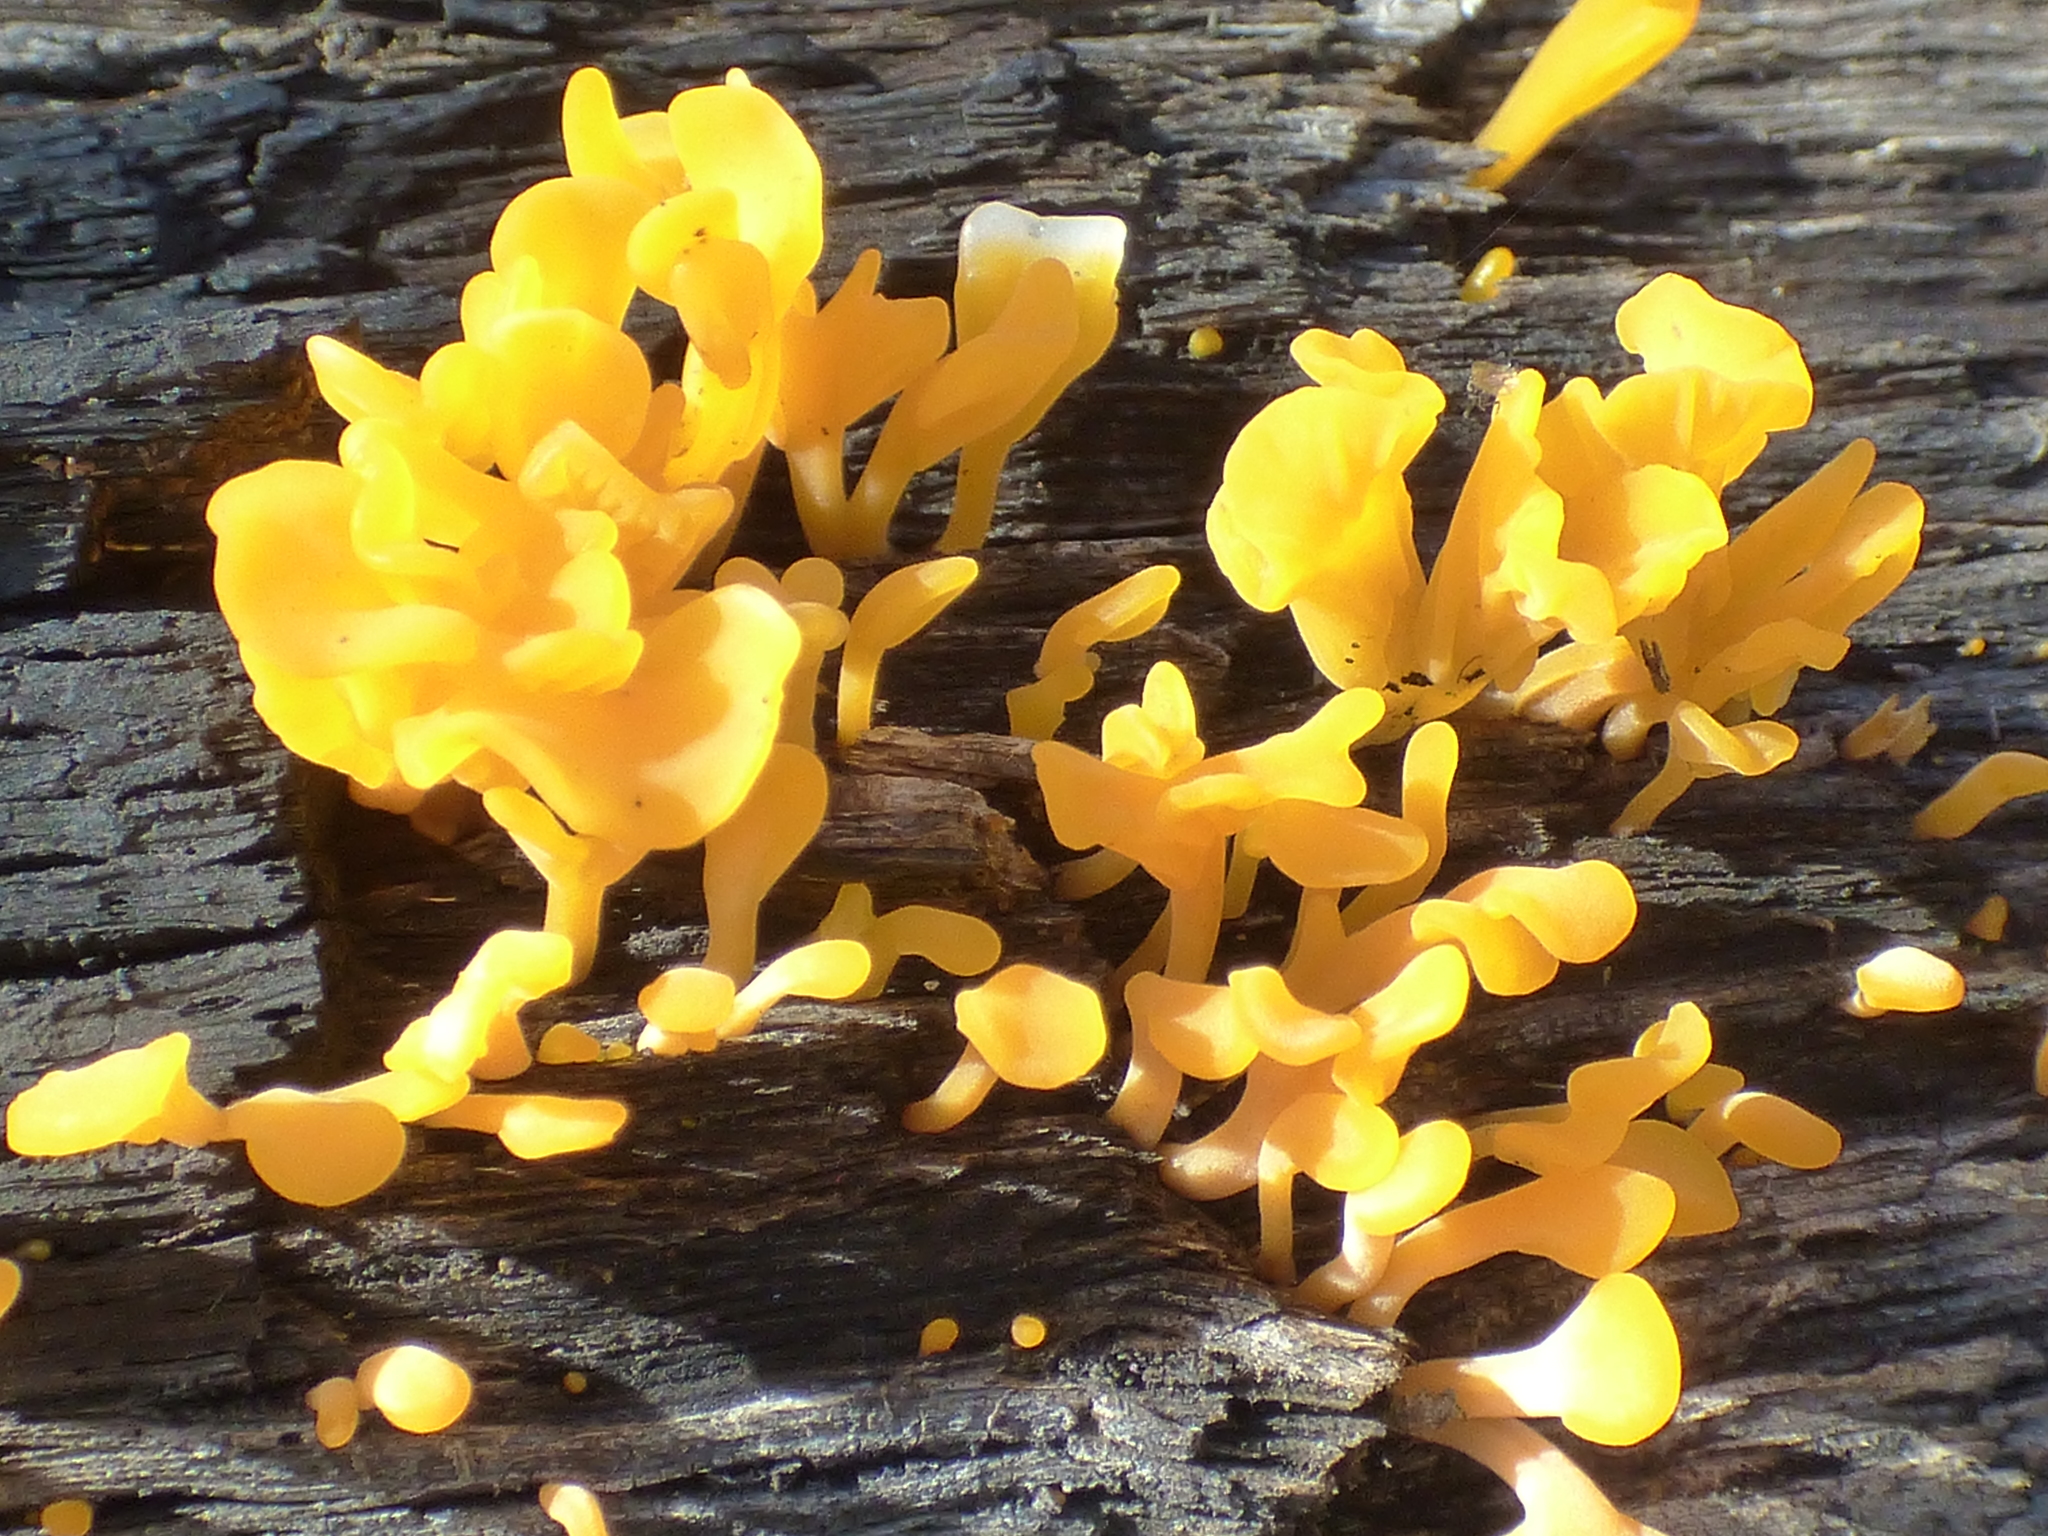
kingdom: Fungi
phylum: Basidiomycota
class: Dacrymycetes
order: Dacrymycetales
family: Dacrymycetaceae
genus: Dacrymyces
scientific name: Dacrymyces spathularius
